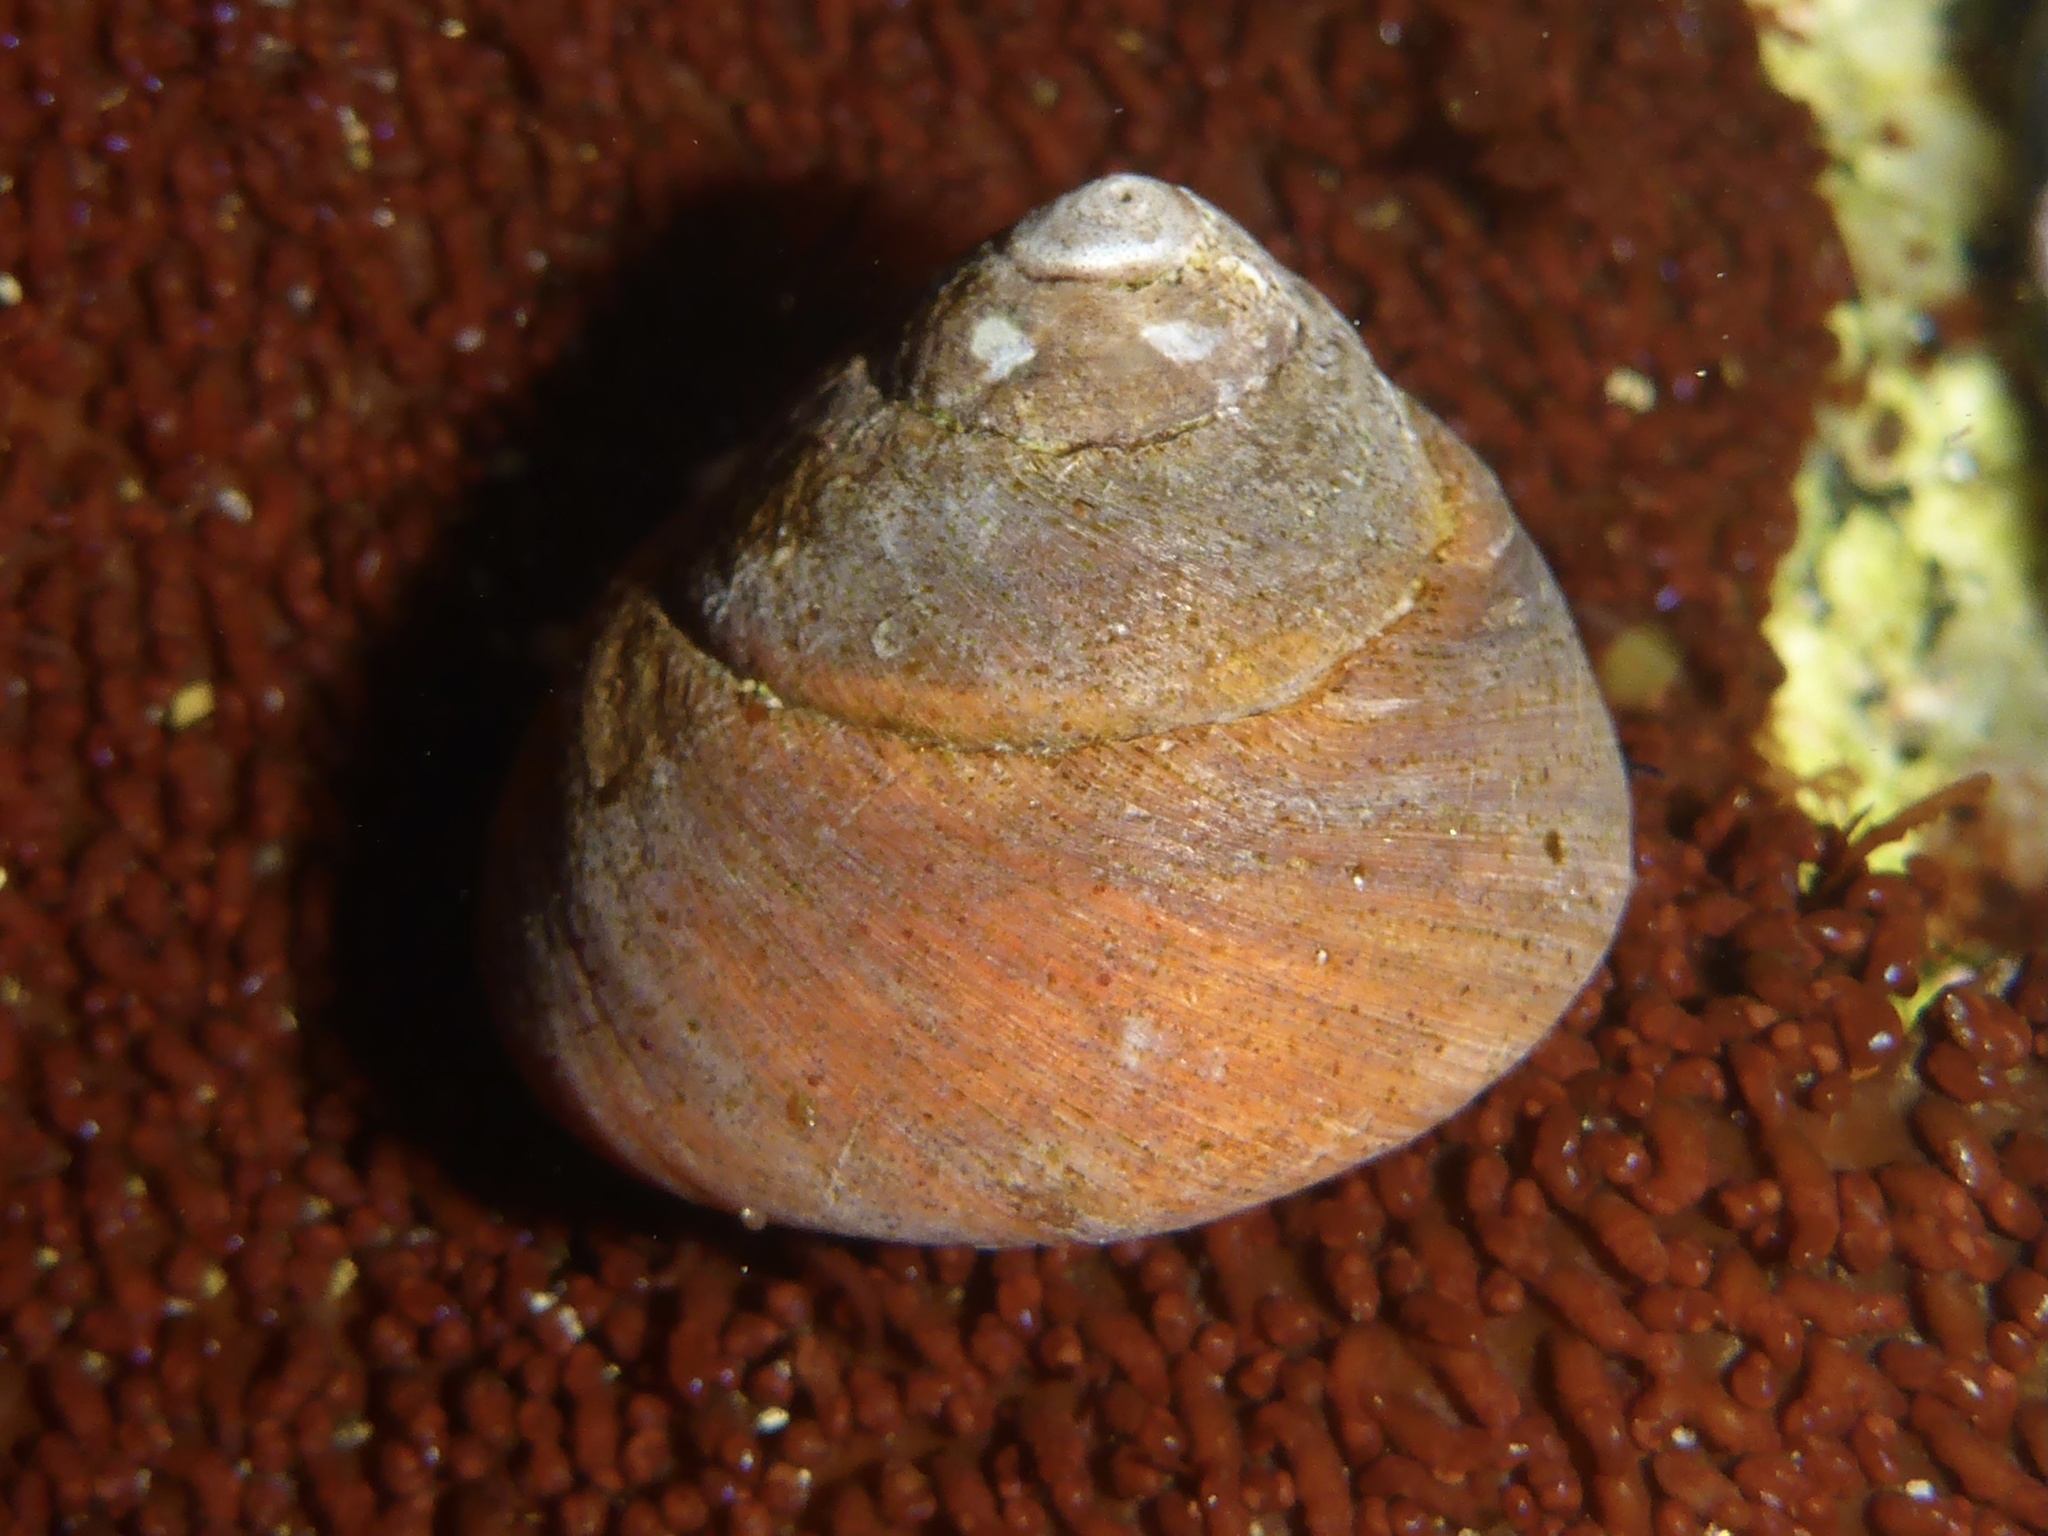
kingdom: Animalia
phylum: Mollusca
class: Gastropoda
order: Trochida
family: Tegulidae
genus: Tegula
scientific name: Tegula brunnea
